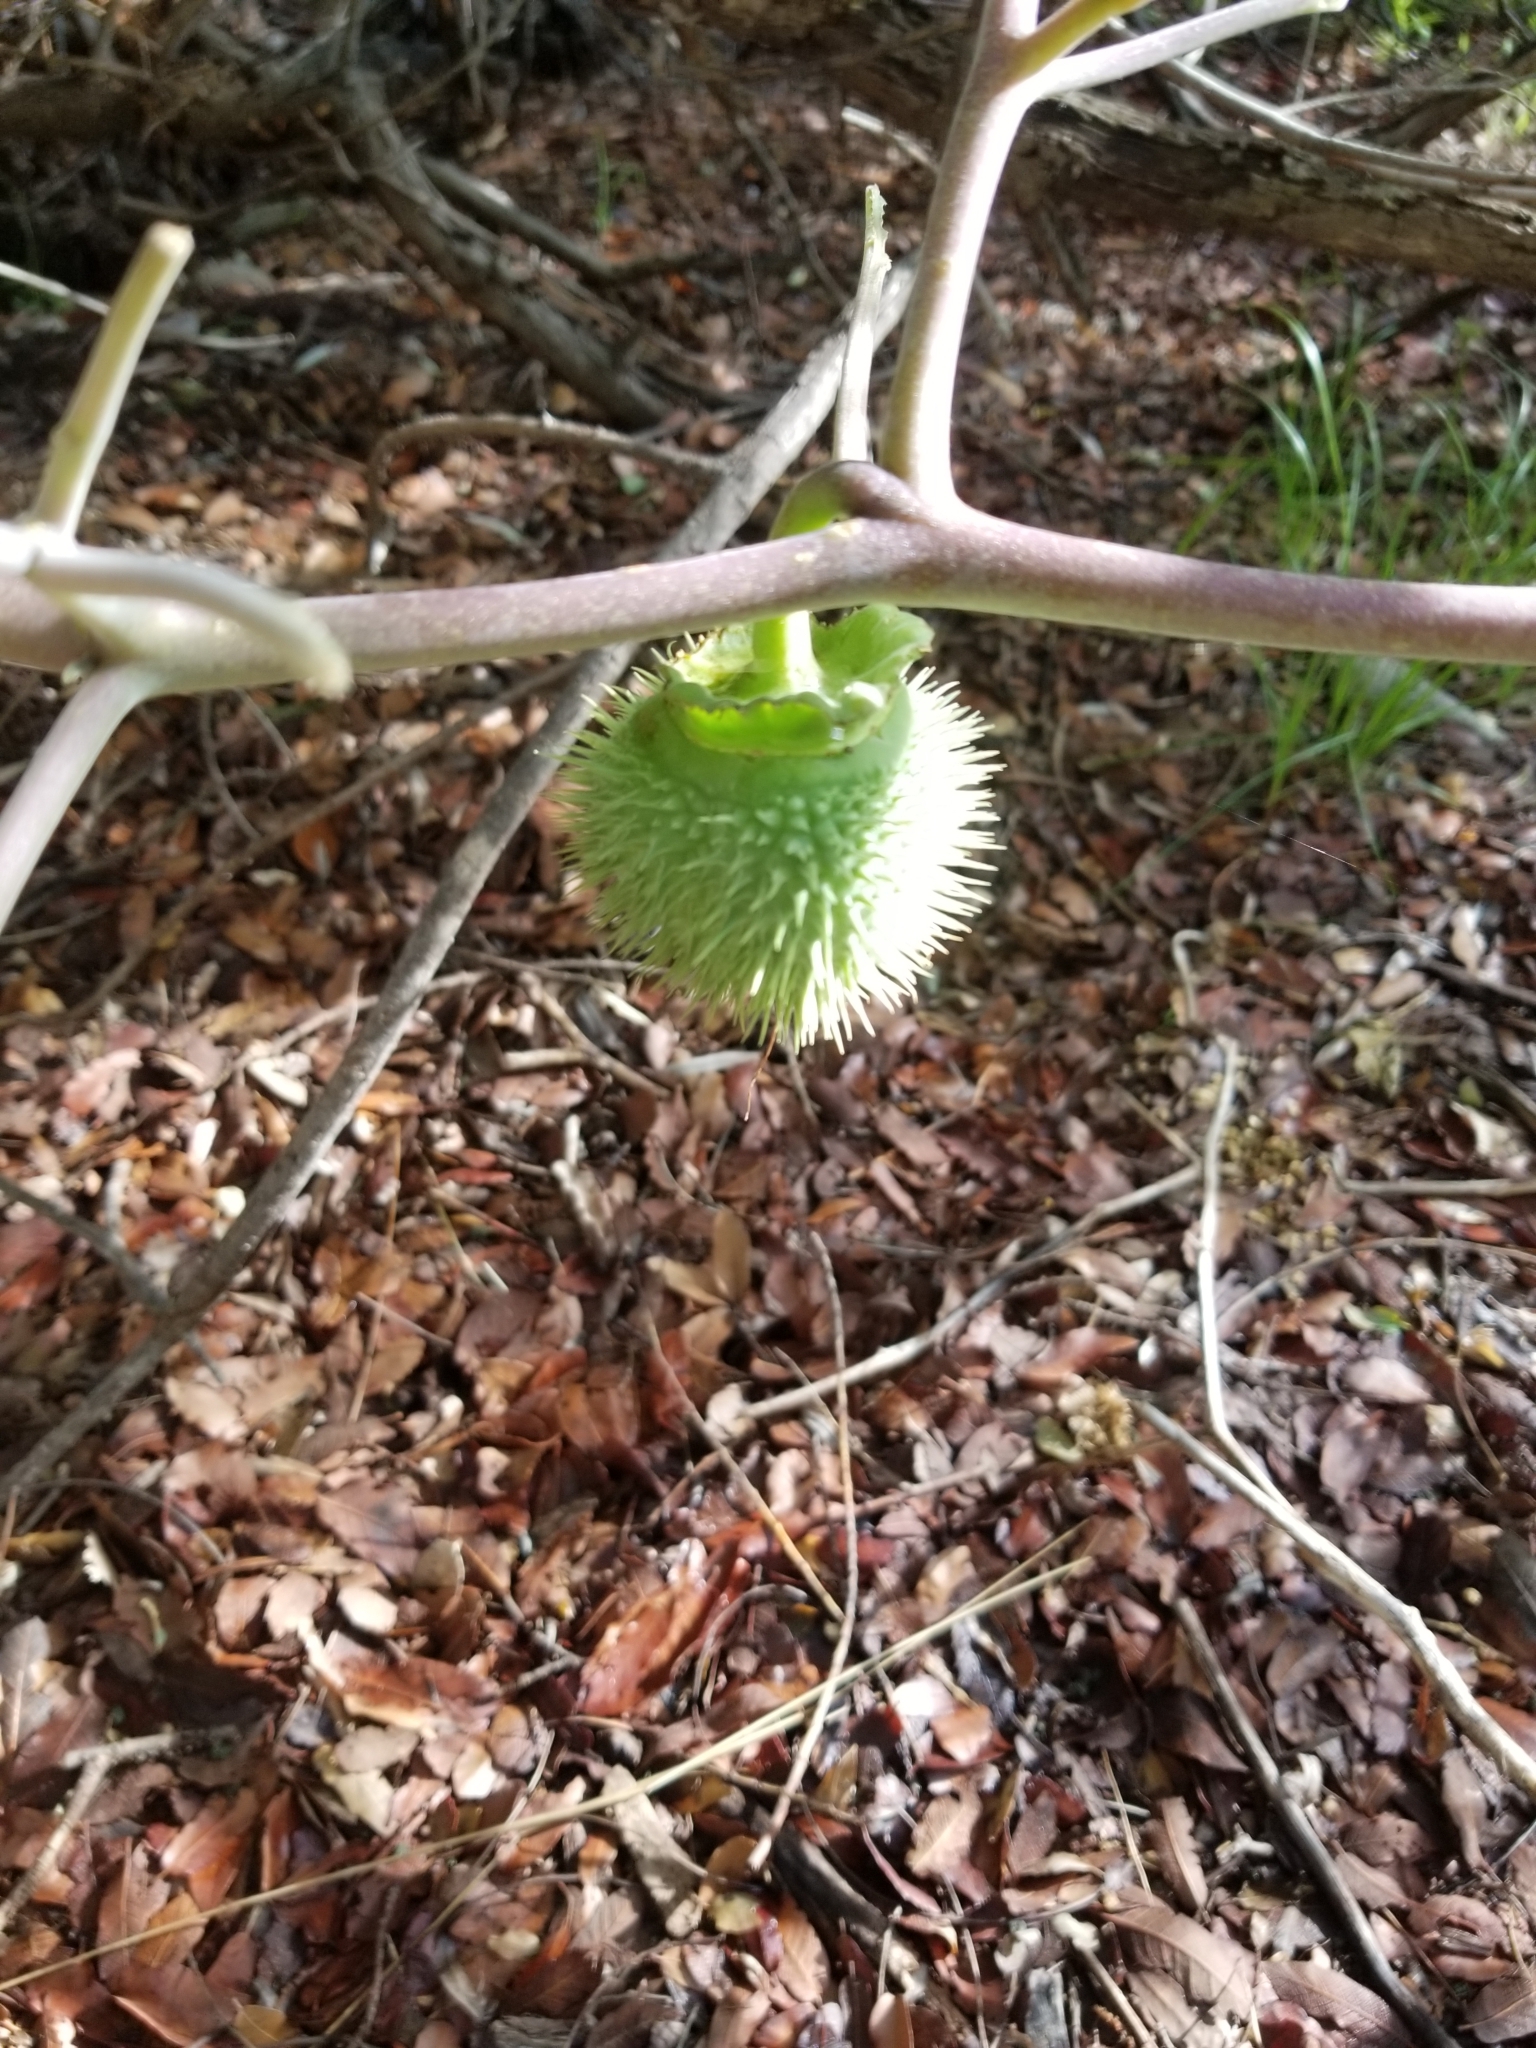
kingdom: Plantae
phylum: Tracheophyta
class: Magnoliopsida
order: Solanales
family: Solanaceae
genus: Datura
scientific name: Datura wrightii
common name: Sacred thorn-apple
